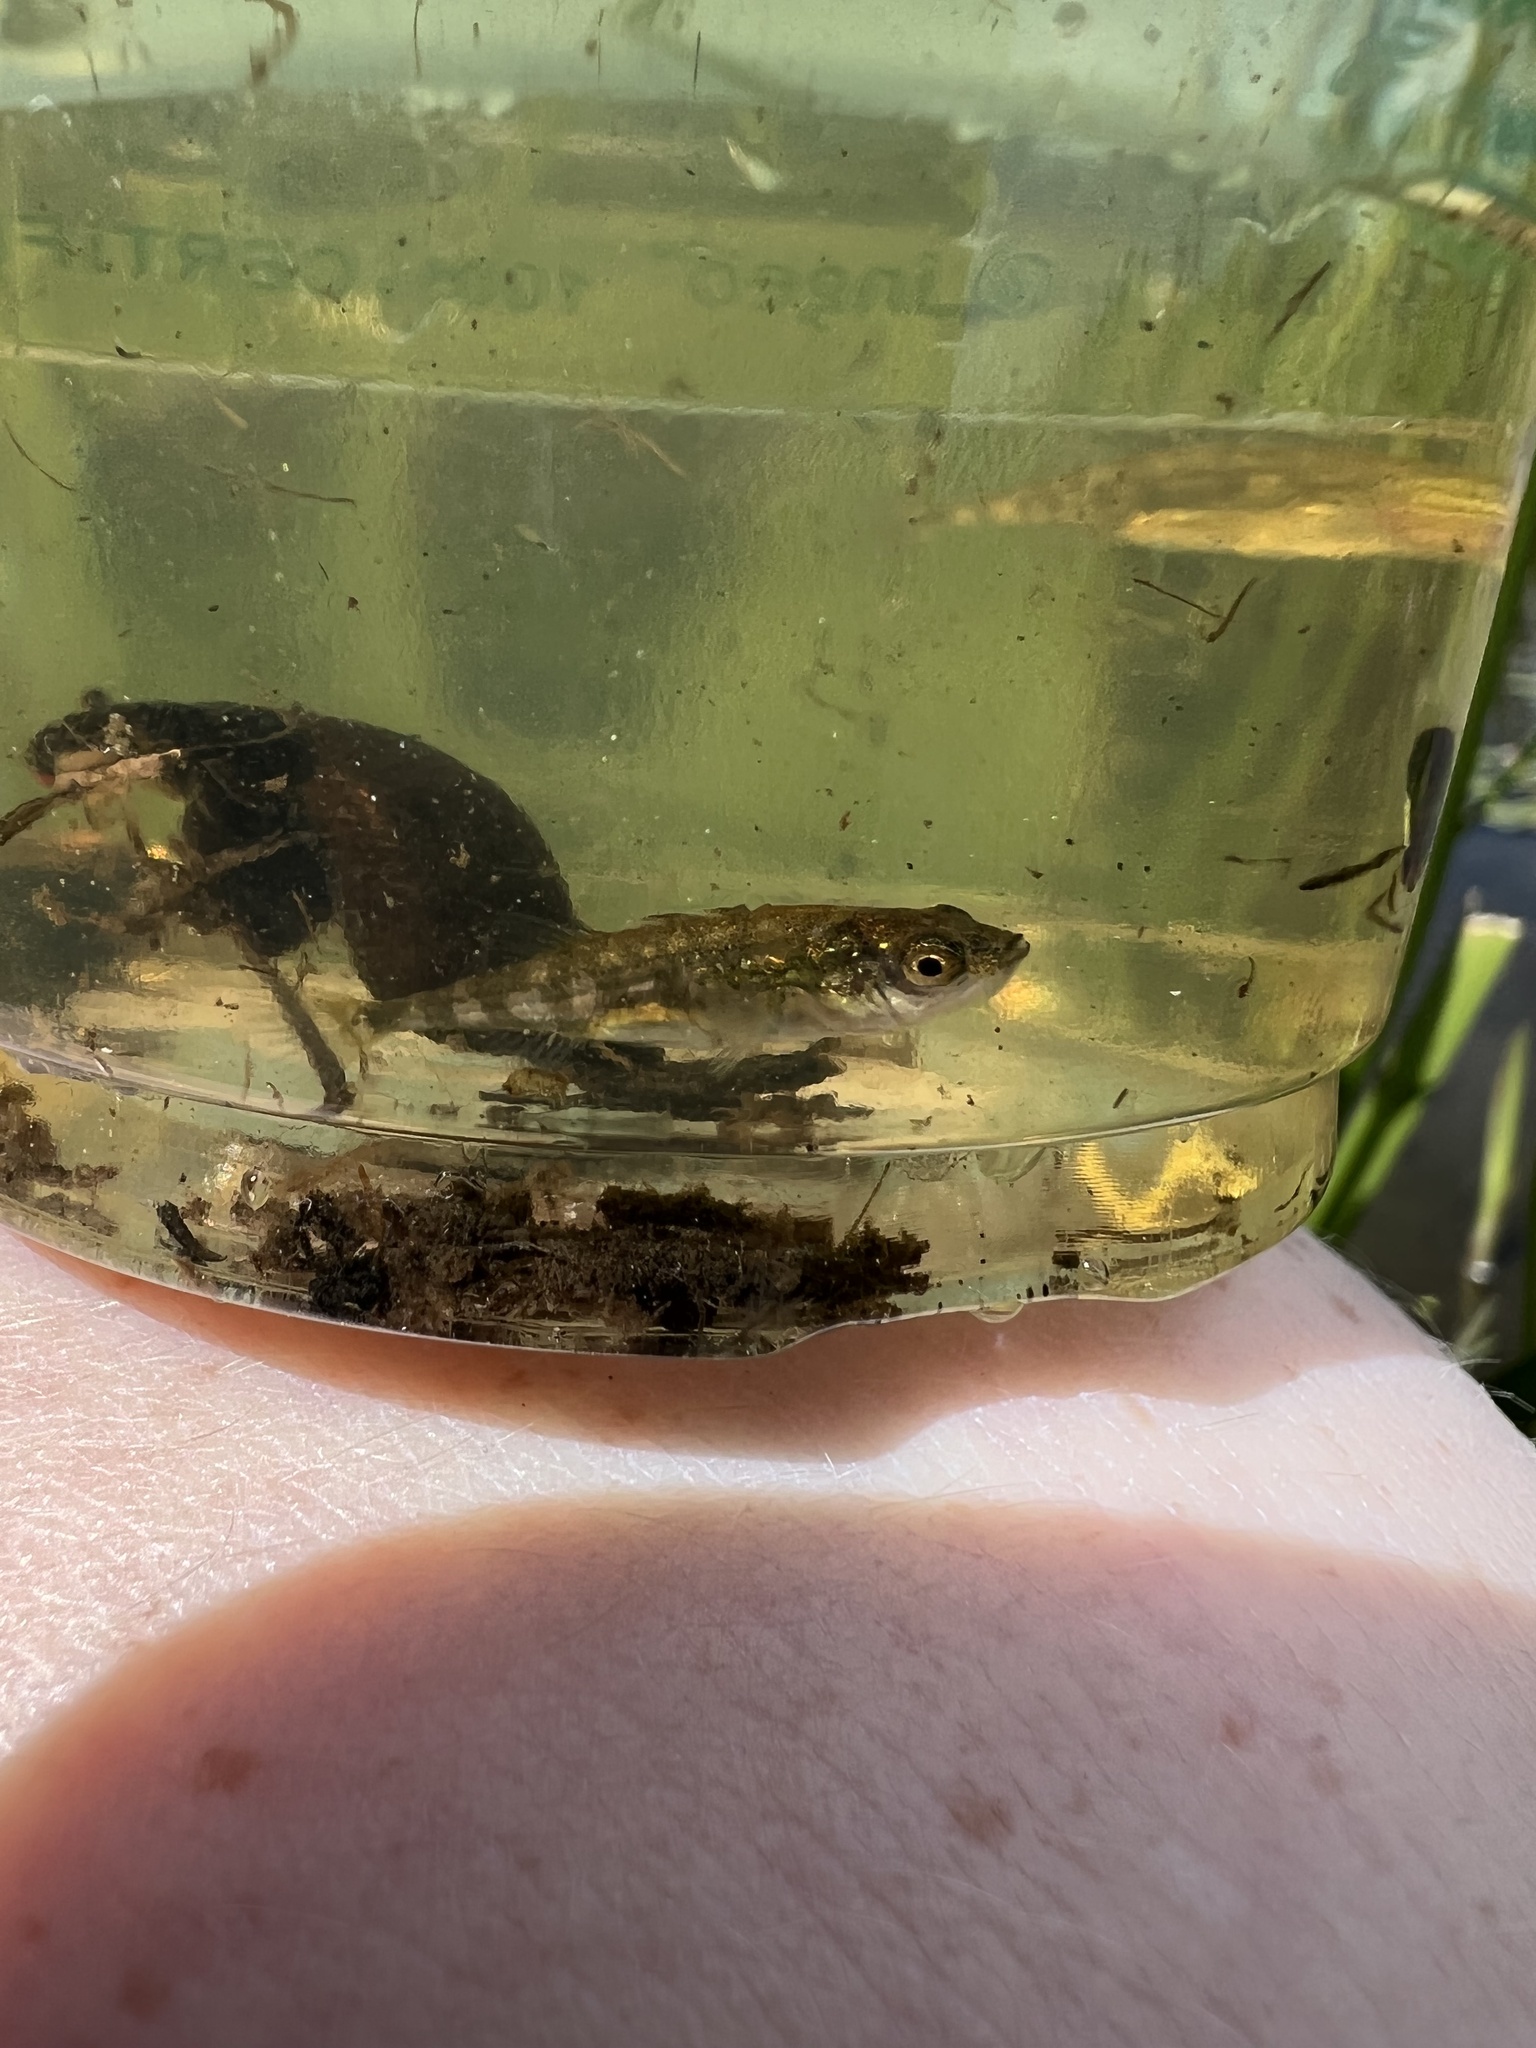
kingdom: Animalia
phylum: Chordata
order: Gasterosteiformes
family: Gasterosteidae
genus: Gasterosteus
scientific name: Gasterosteus aculeatus
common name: Three-spined stickleback
